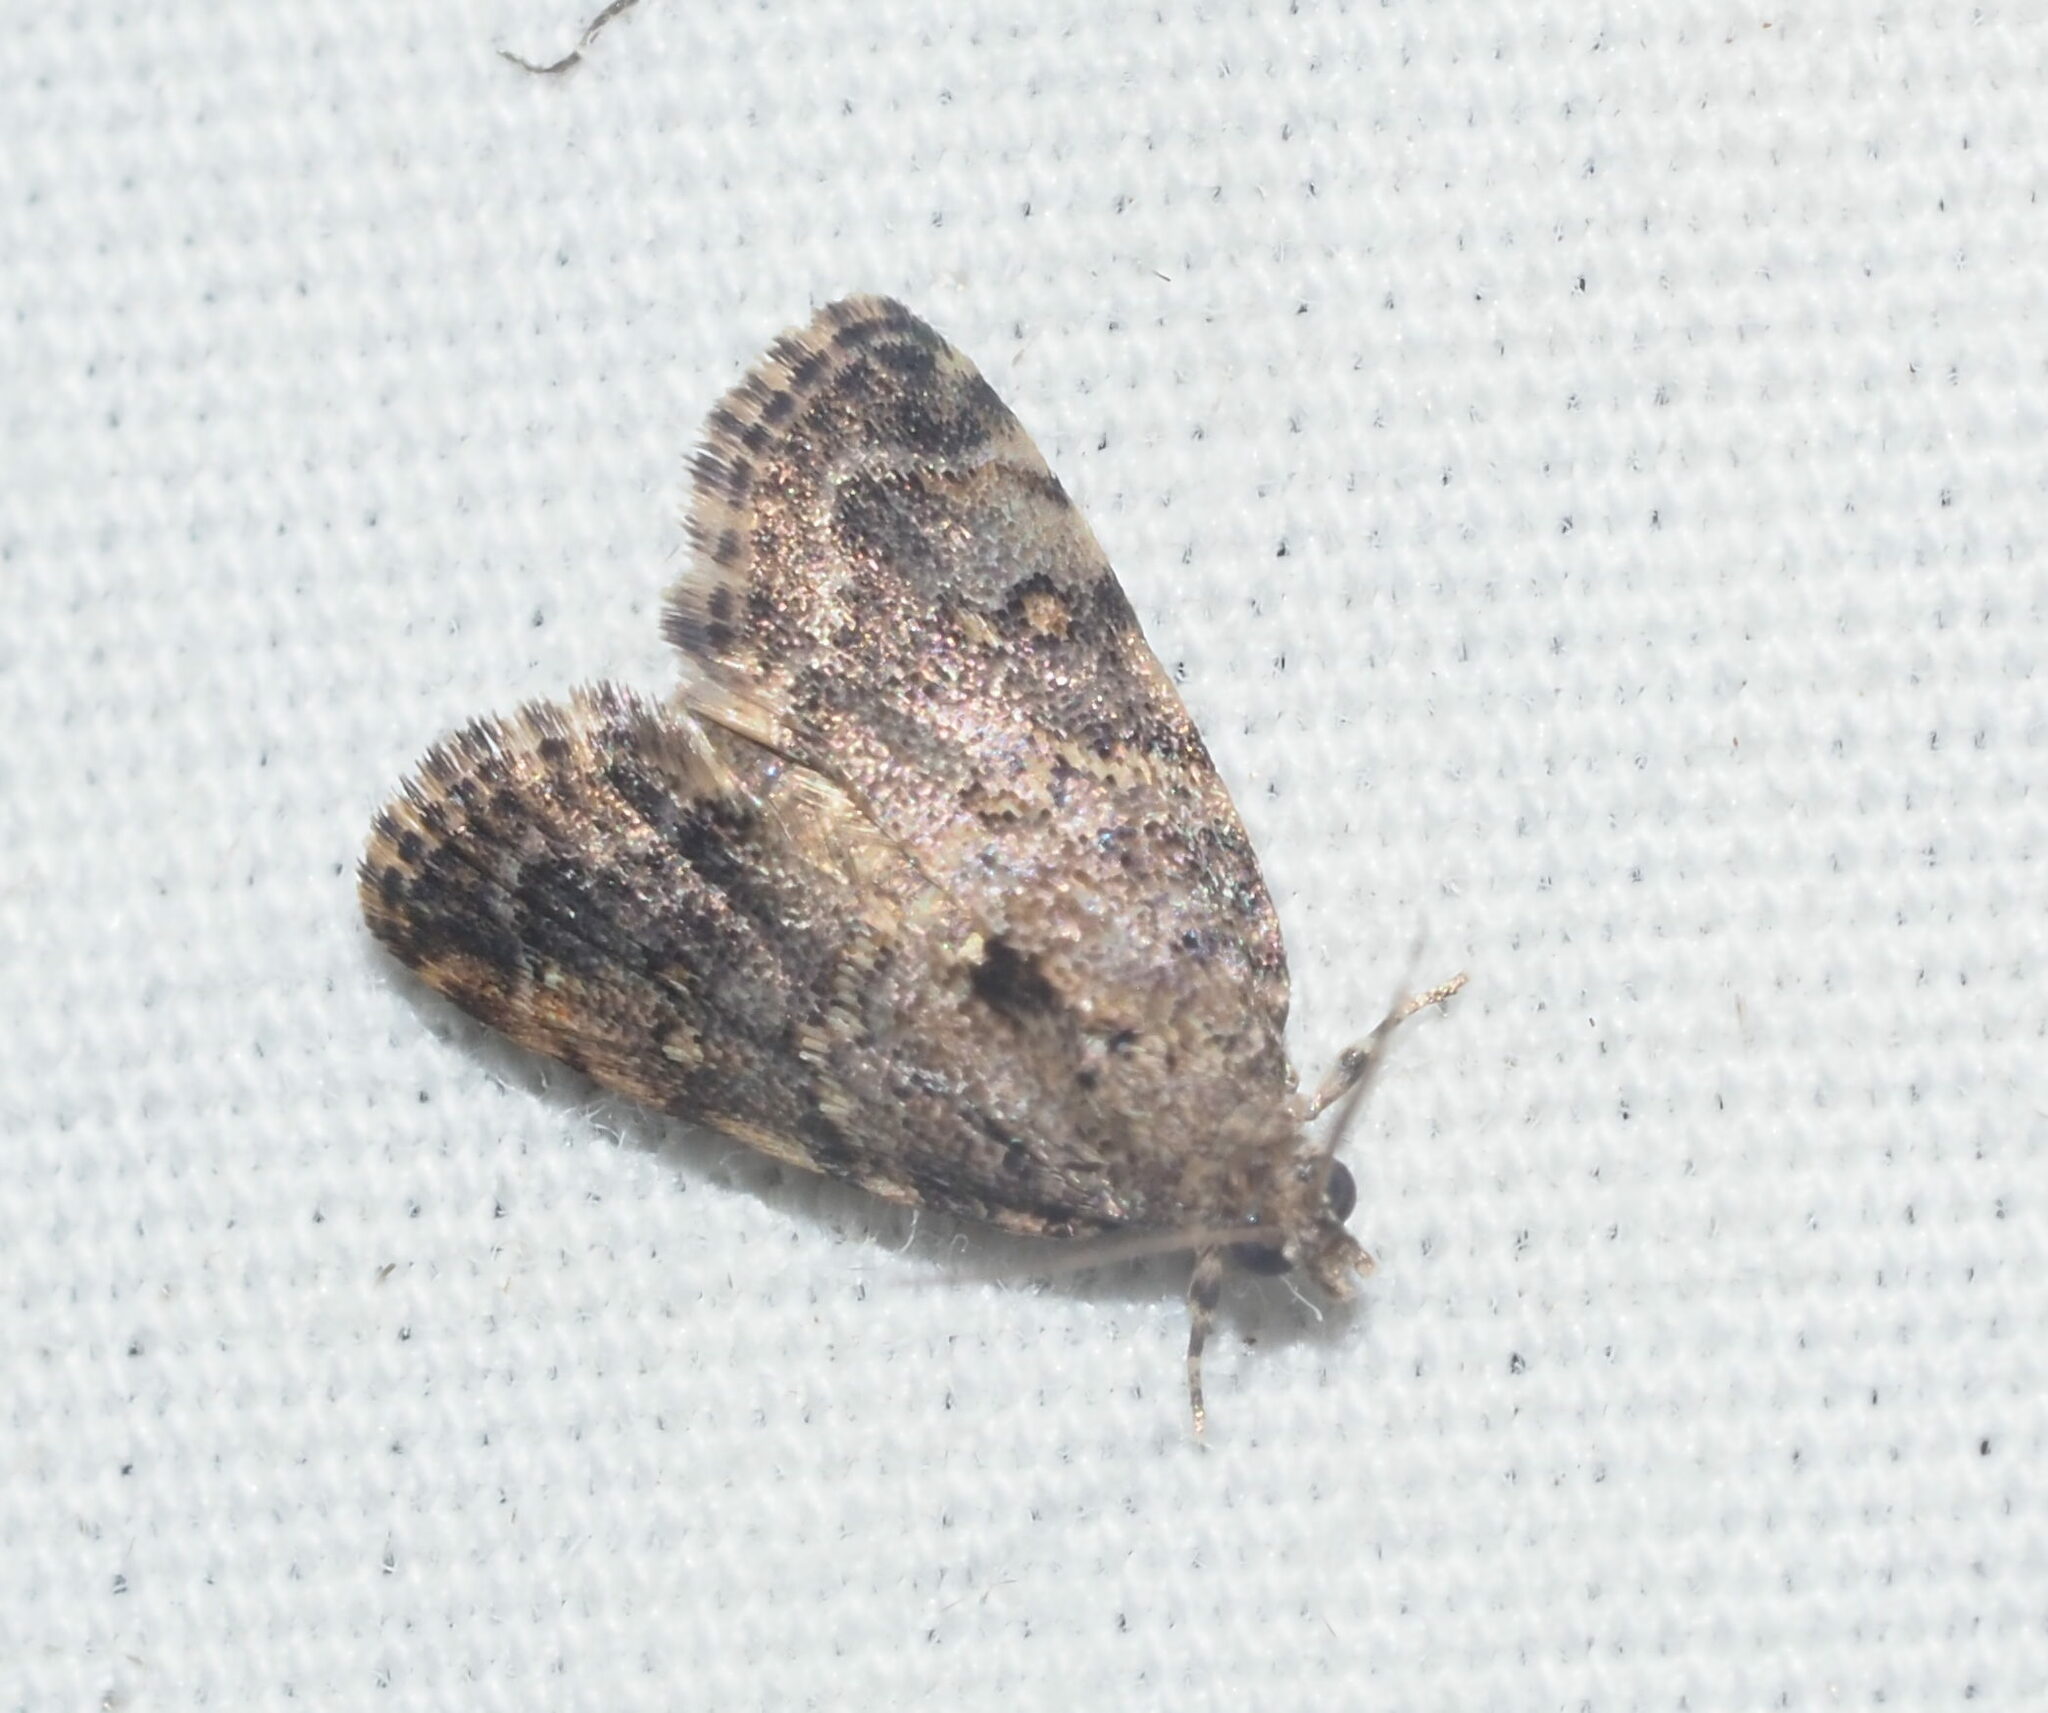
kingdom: Animalia
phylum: Arthropoda
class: Insecta
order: Lepidoptera
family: Crambidae
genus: Mestolobes
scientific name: Mestolobes abnormis
